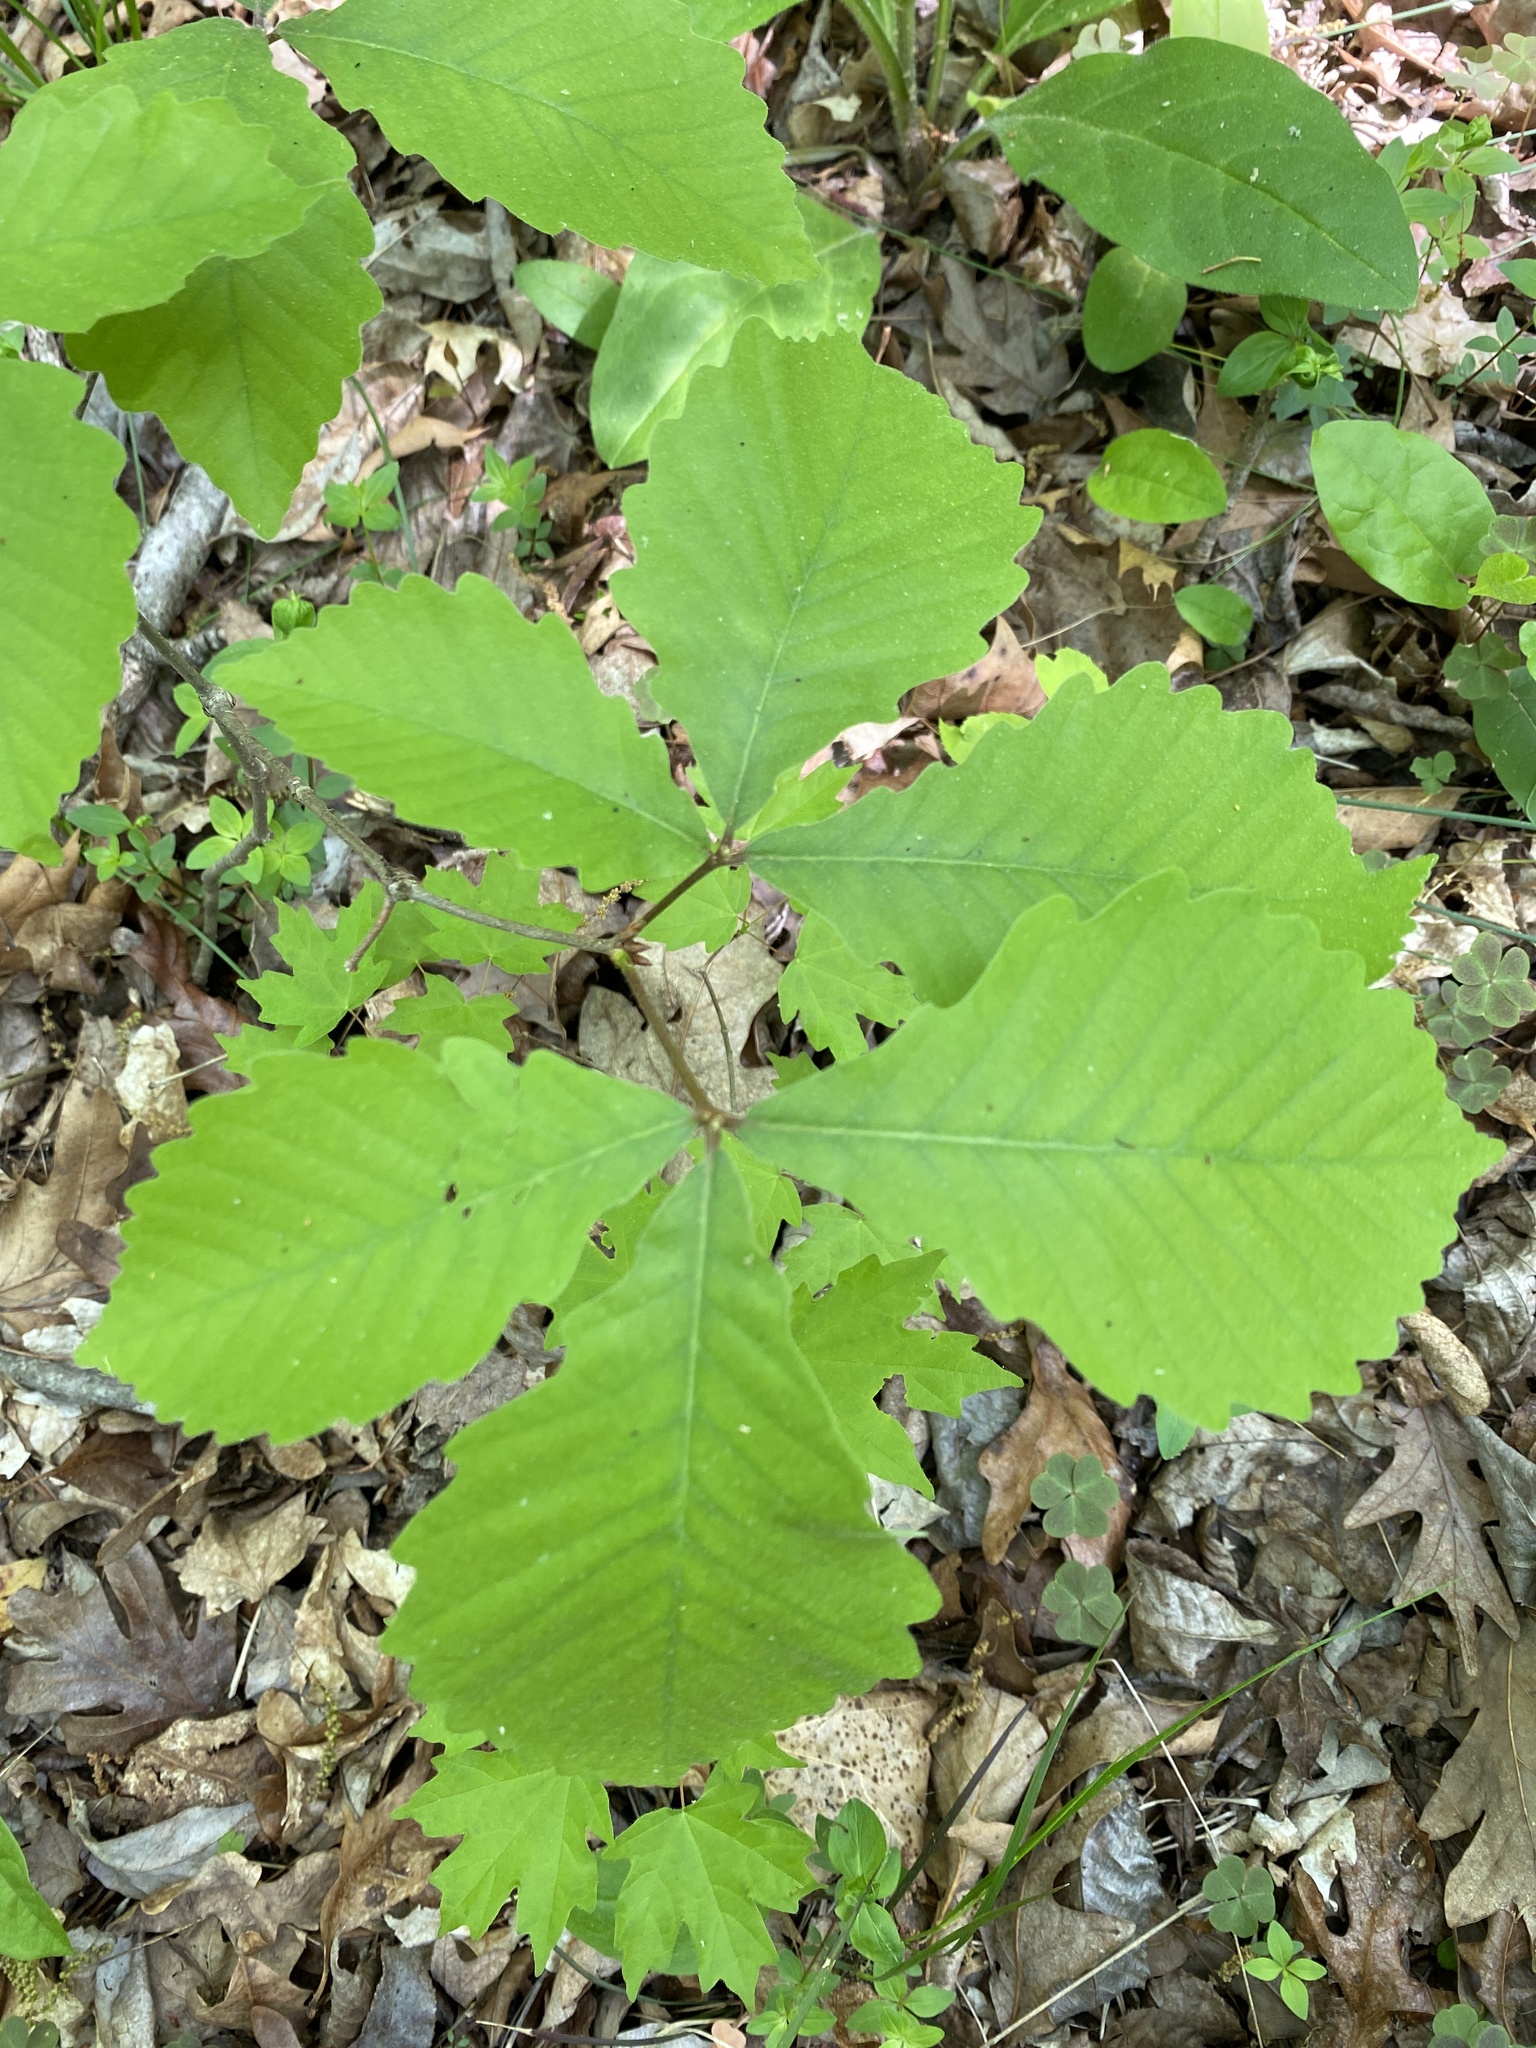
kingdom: Plantae
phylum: Tracheophyta
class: Magnoliopsida
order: Fagales
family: Fagaceae
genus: Quercus
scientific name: Quercus montana
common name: Chestnut oak
